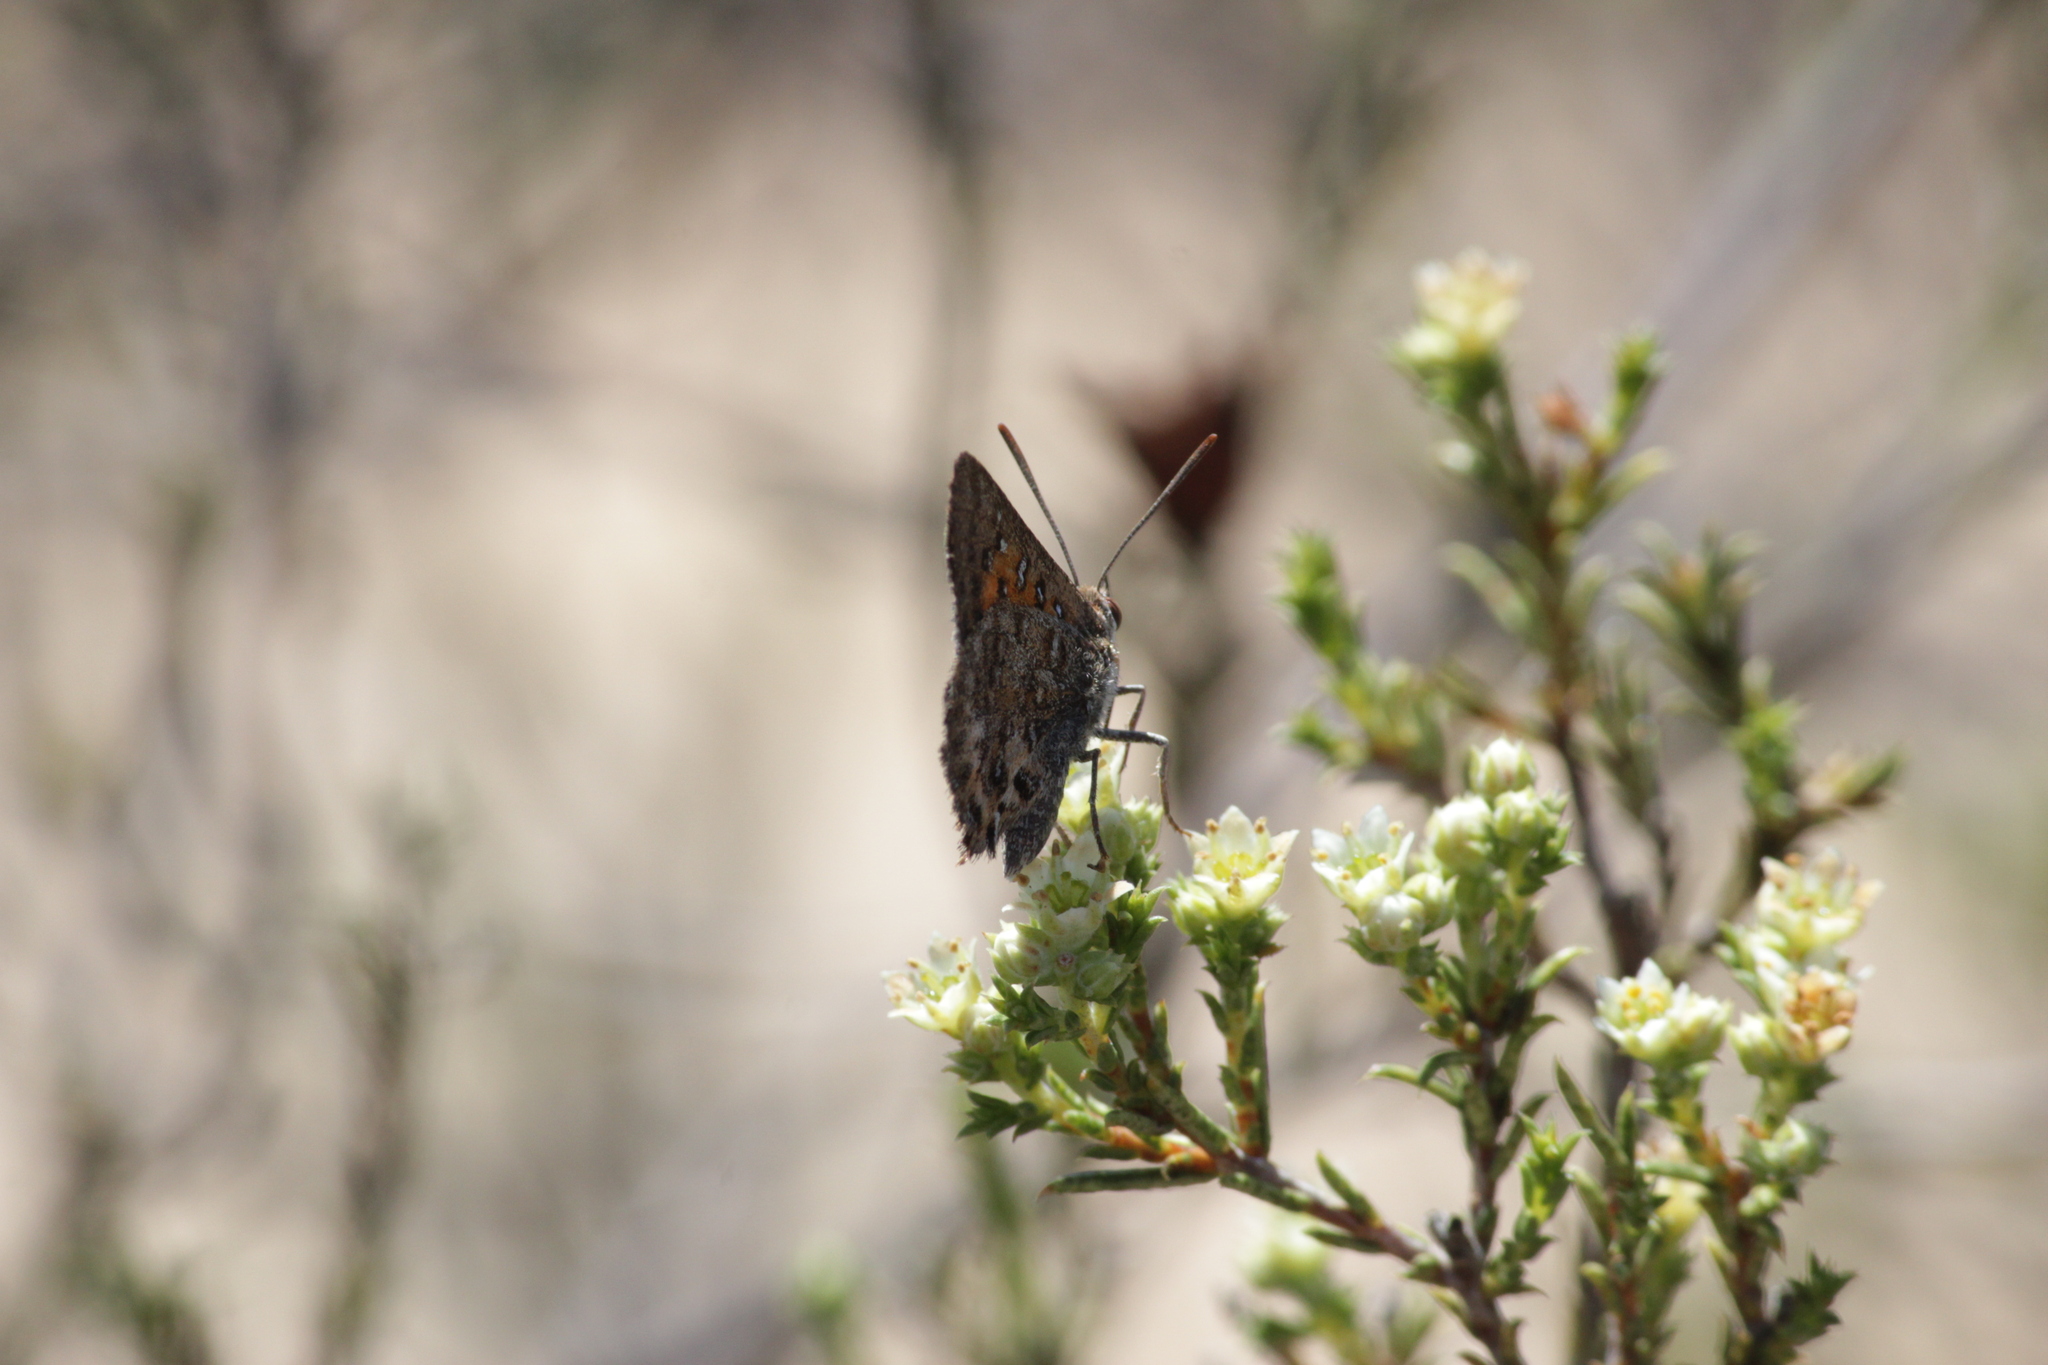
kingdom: Animalia
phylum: Arthropoda
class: Insecta
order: Lepidoptera
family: Lycaenidae
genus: Aloeides
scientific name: Aloeides pierus
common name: Dull copper
